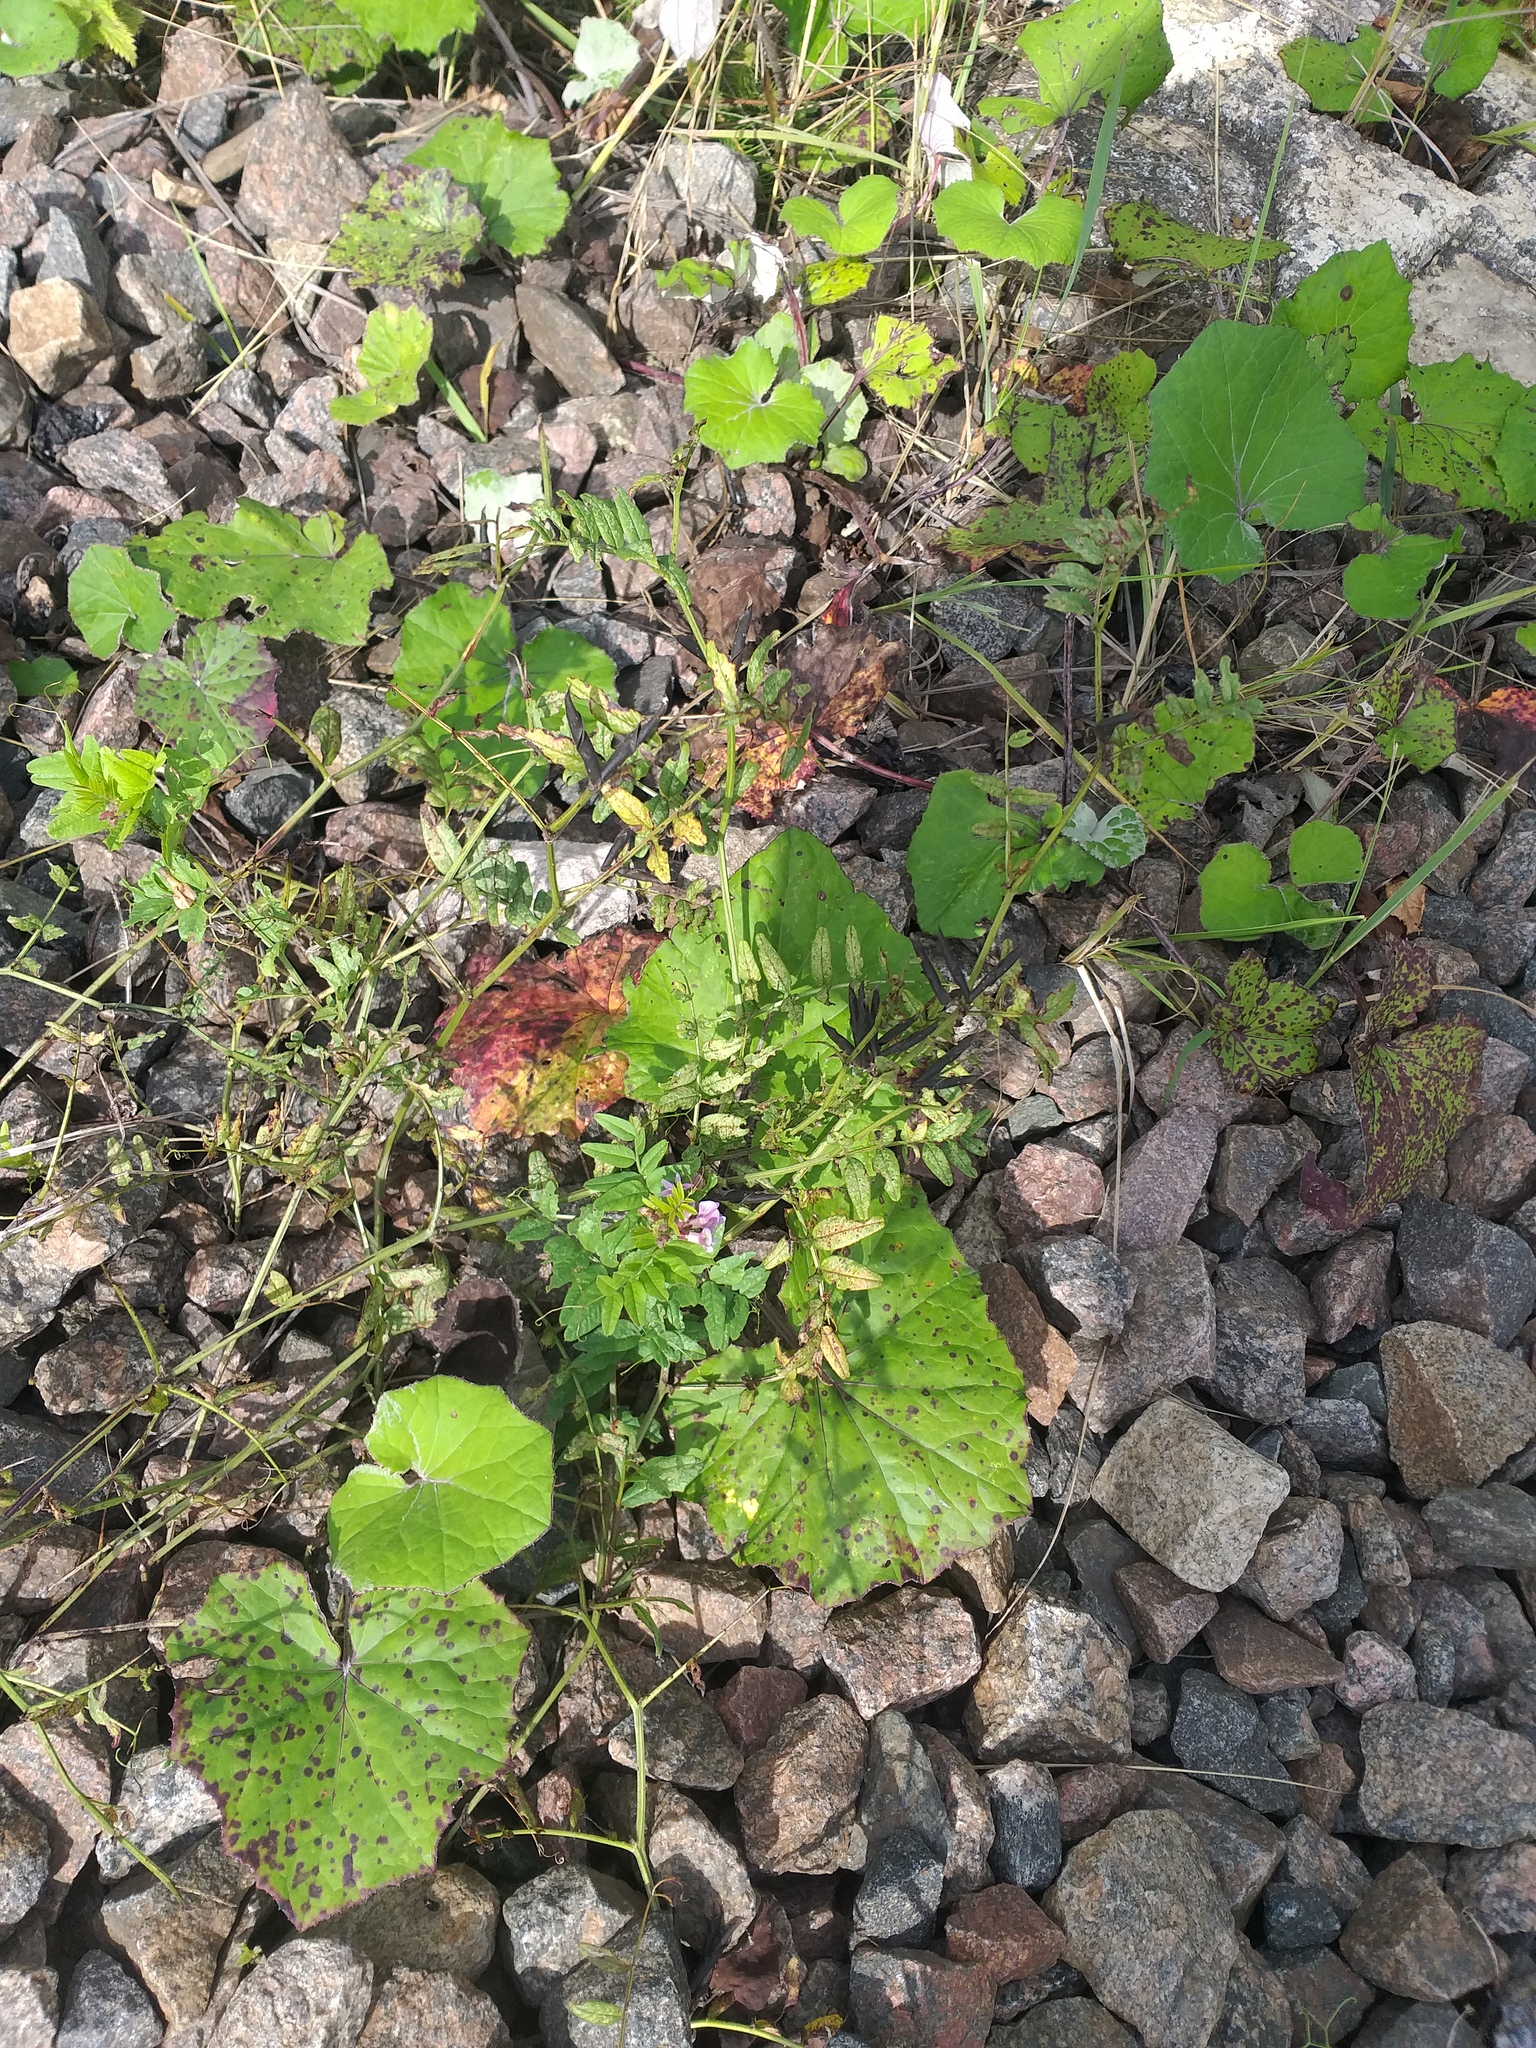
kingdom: Plantae
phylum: Tracheophyta
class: Magnoliopsida
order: Fabales
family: Fabaceae
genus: Vicia
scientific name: Vicia sepium
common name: Bush vetch
